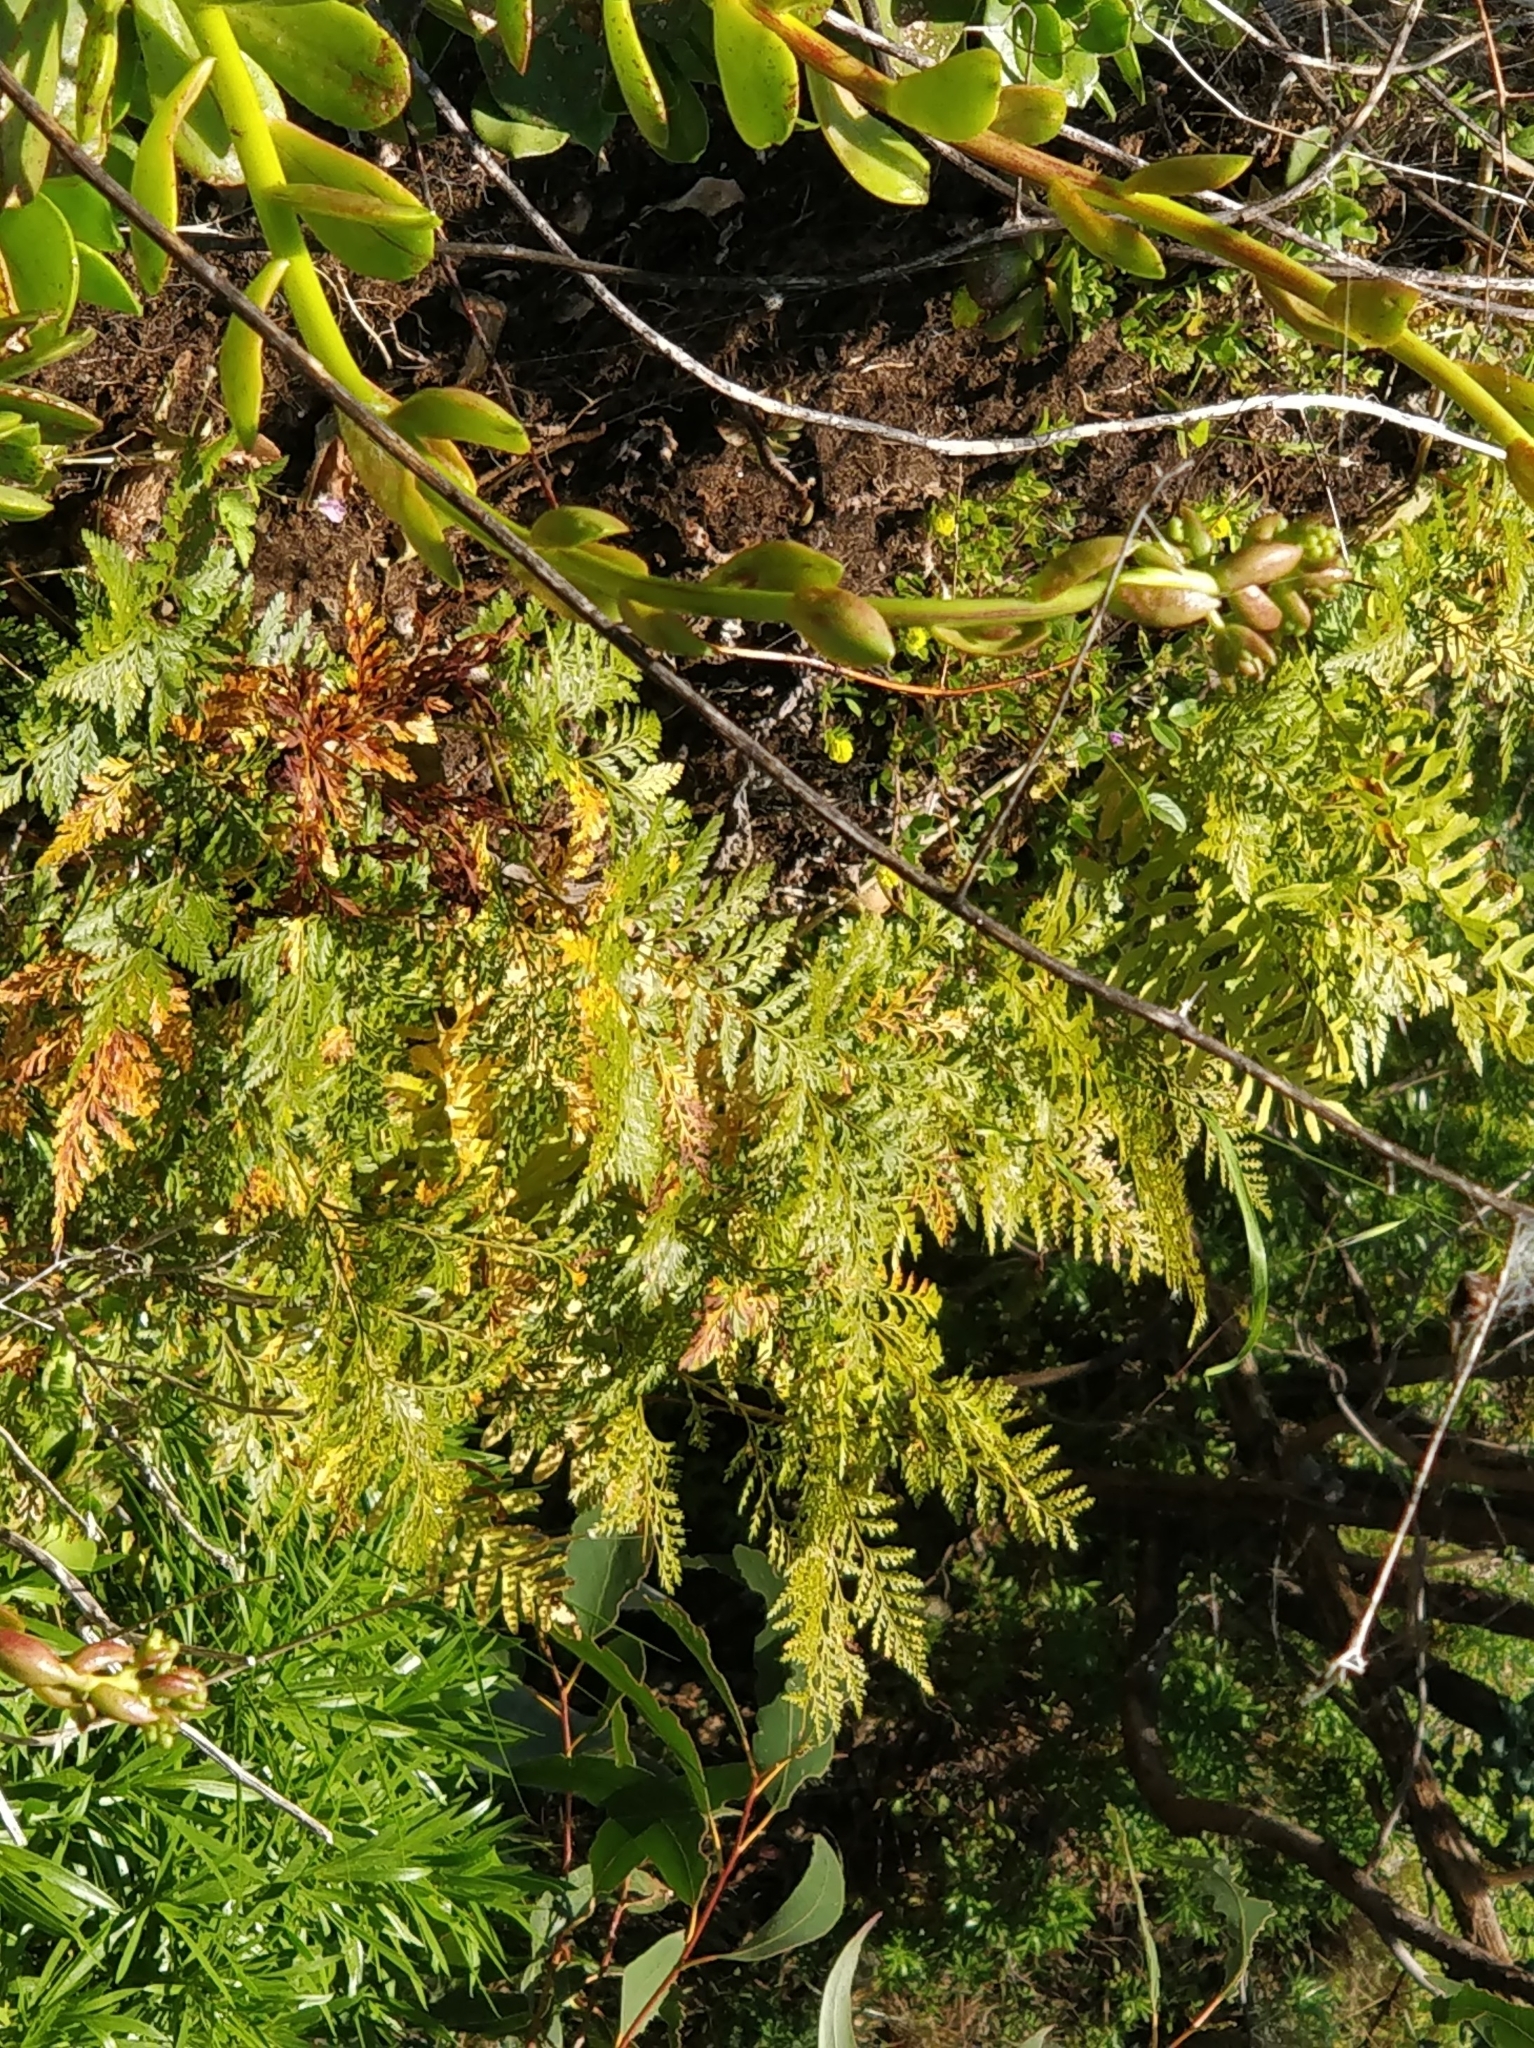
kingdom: Plantae
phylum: Tracheophyta
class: Polypodiopsida
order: Polypodiales
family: Davalliaceae
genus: Davallia
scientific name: Davallia canariensis
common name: Hare's-foot fern
